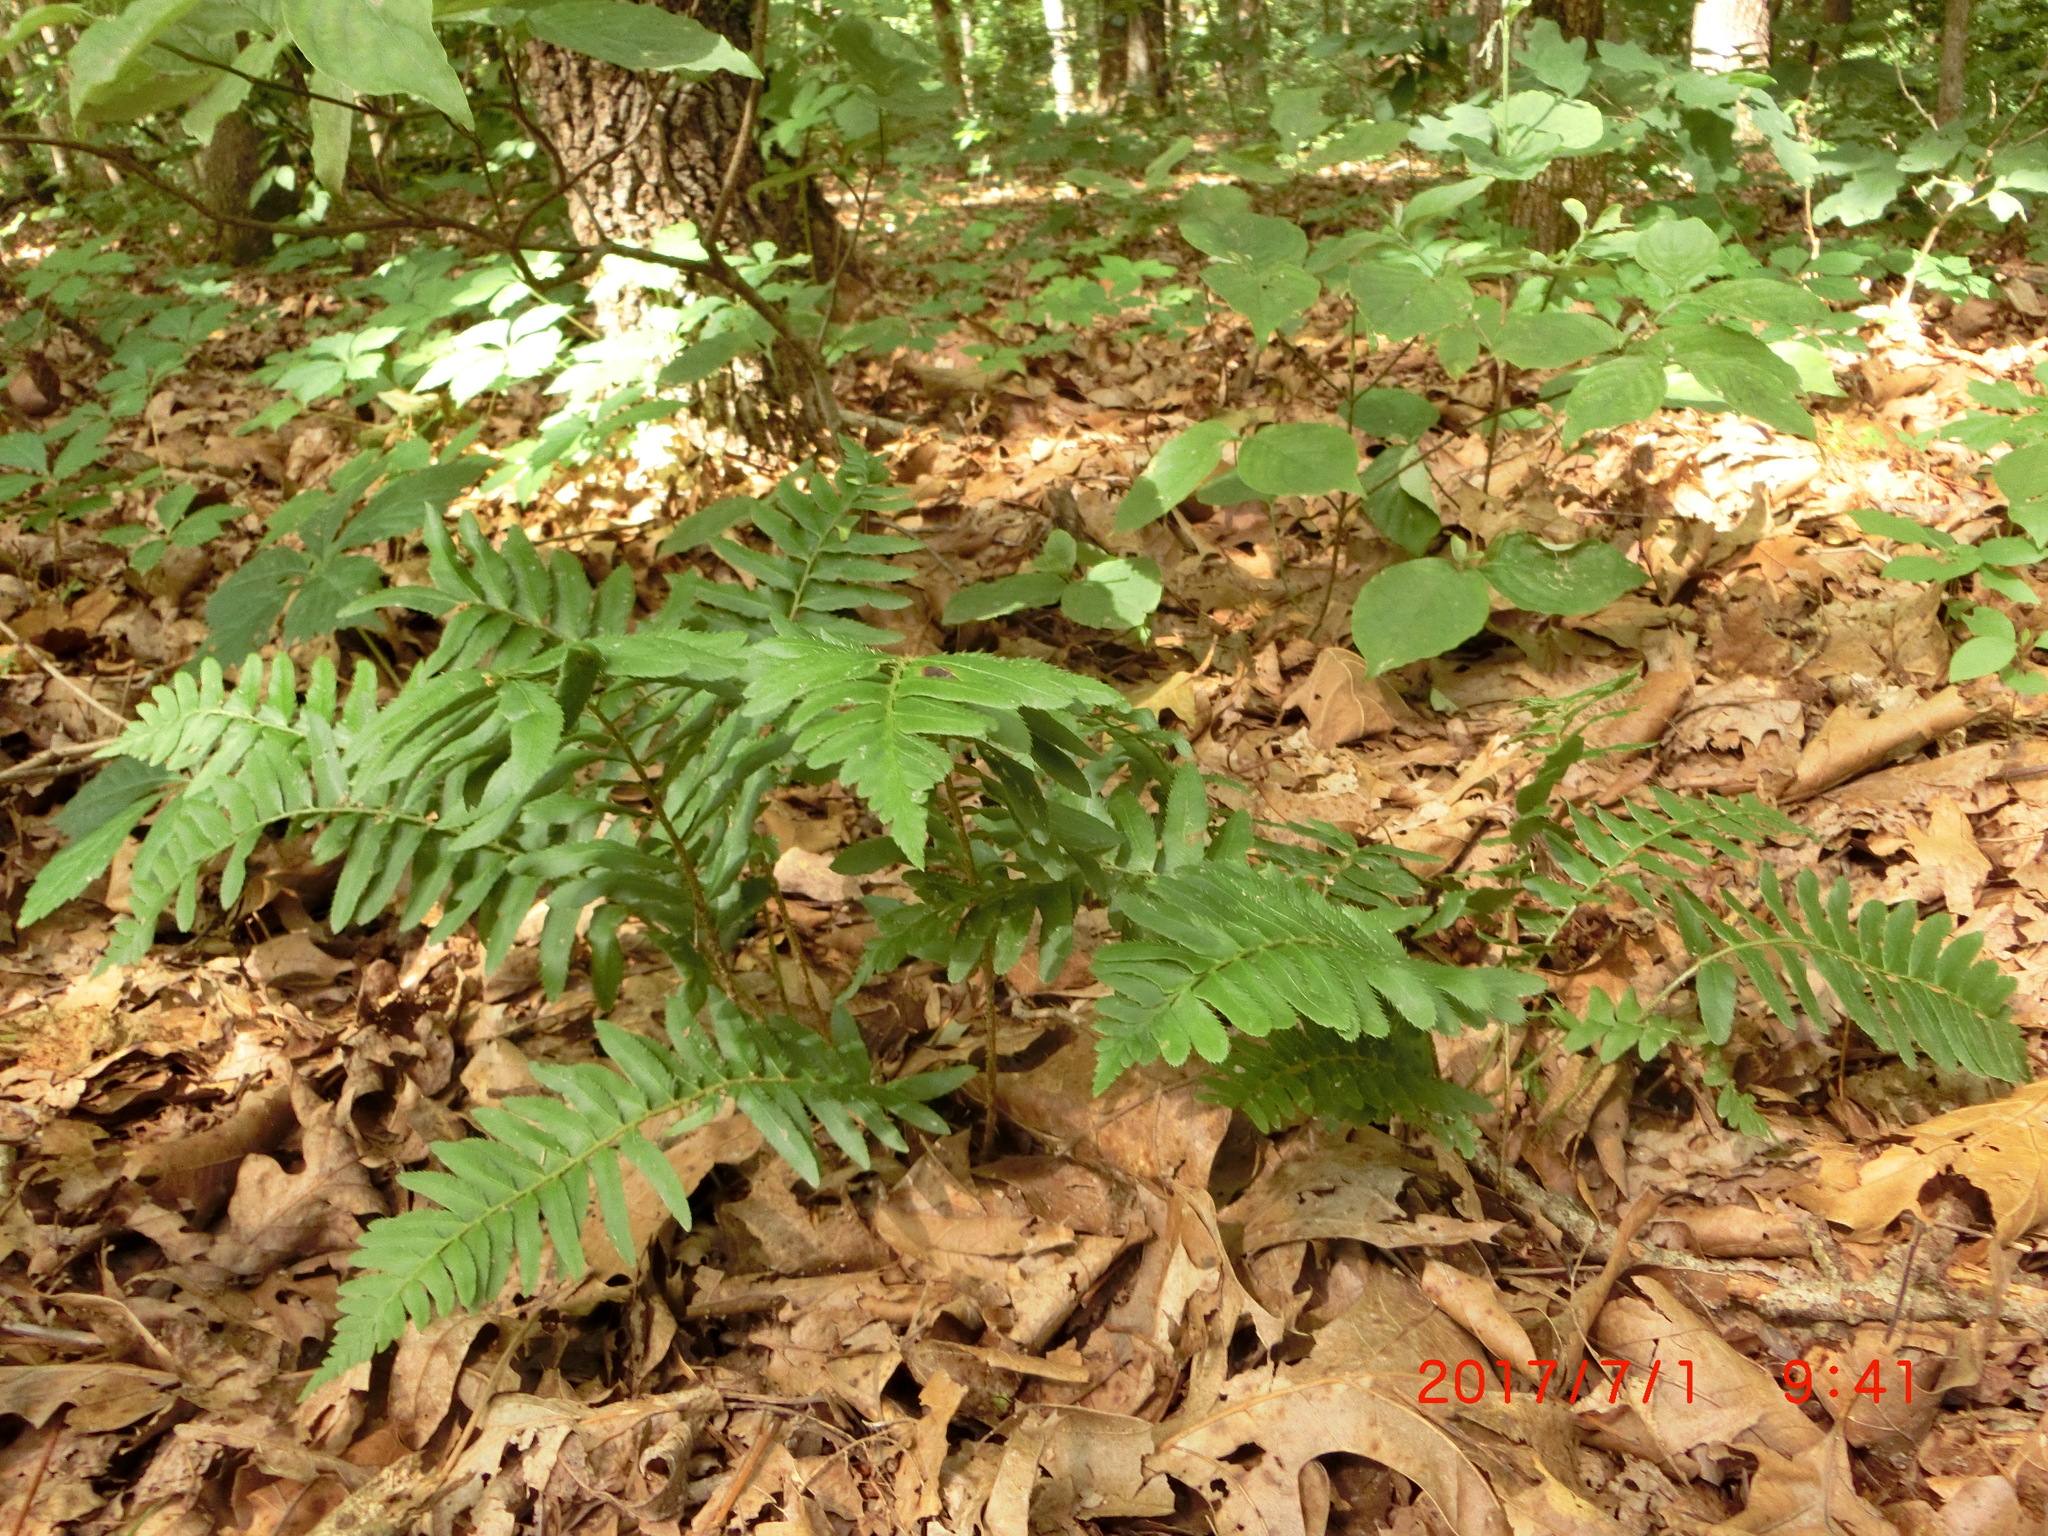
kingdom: Plantae
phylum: Tracheophyta
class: Polypodiopsida
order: Polypodiales
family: Dryopteridaceae
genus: Polystichum
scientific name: Polystichum acrostichoides
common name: Christmas fern
